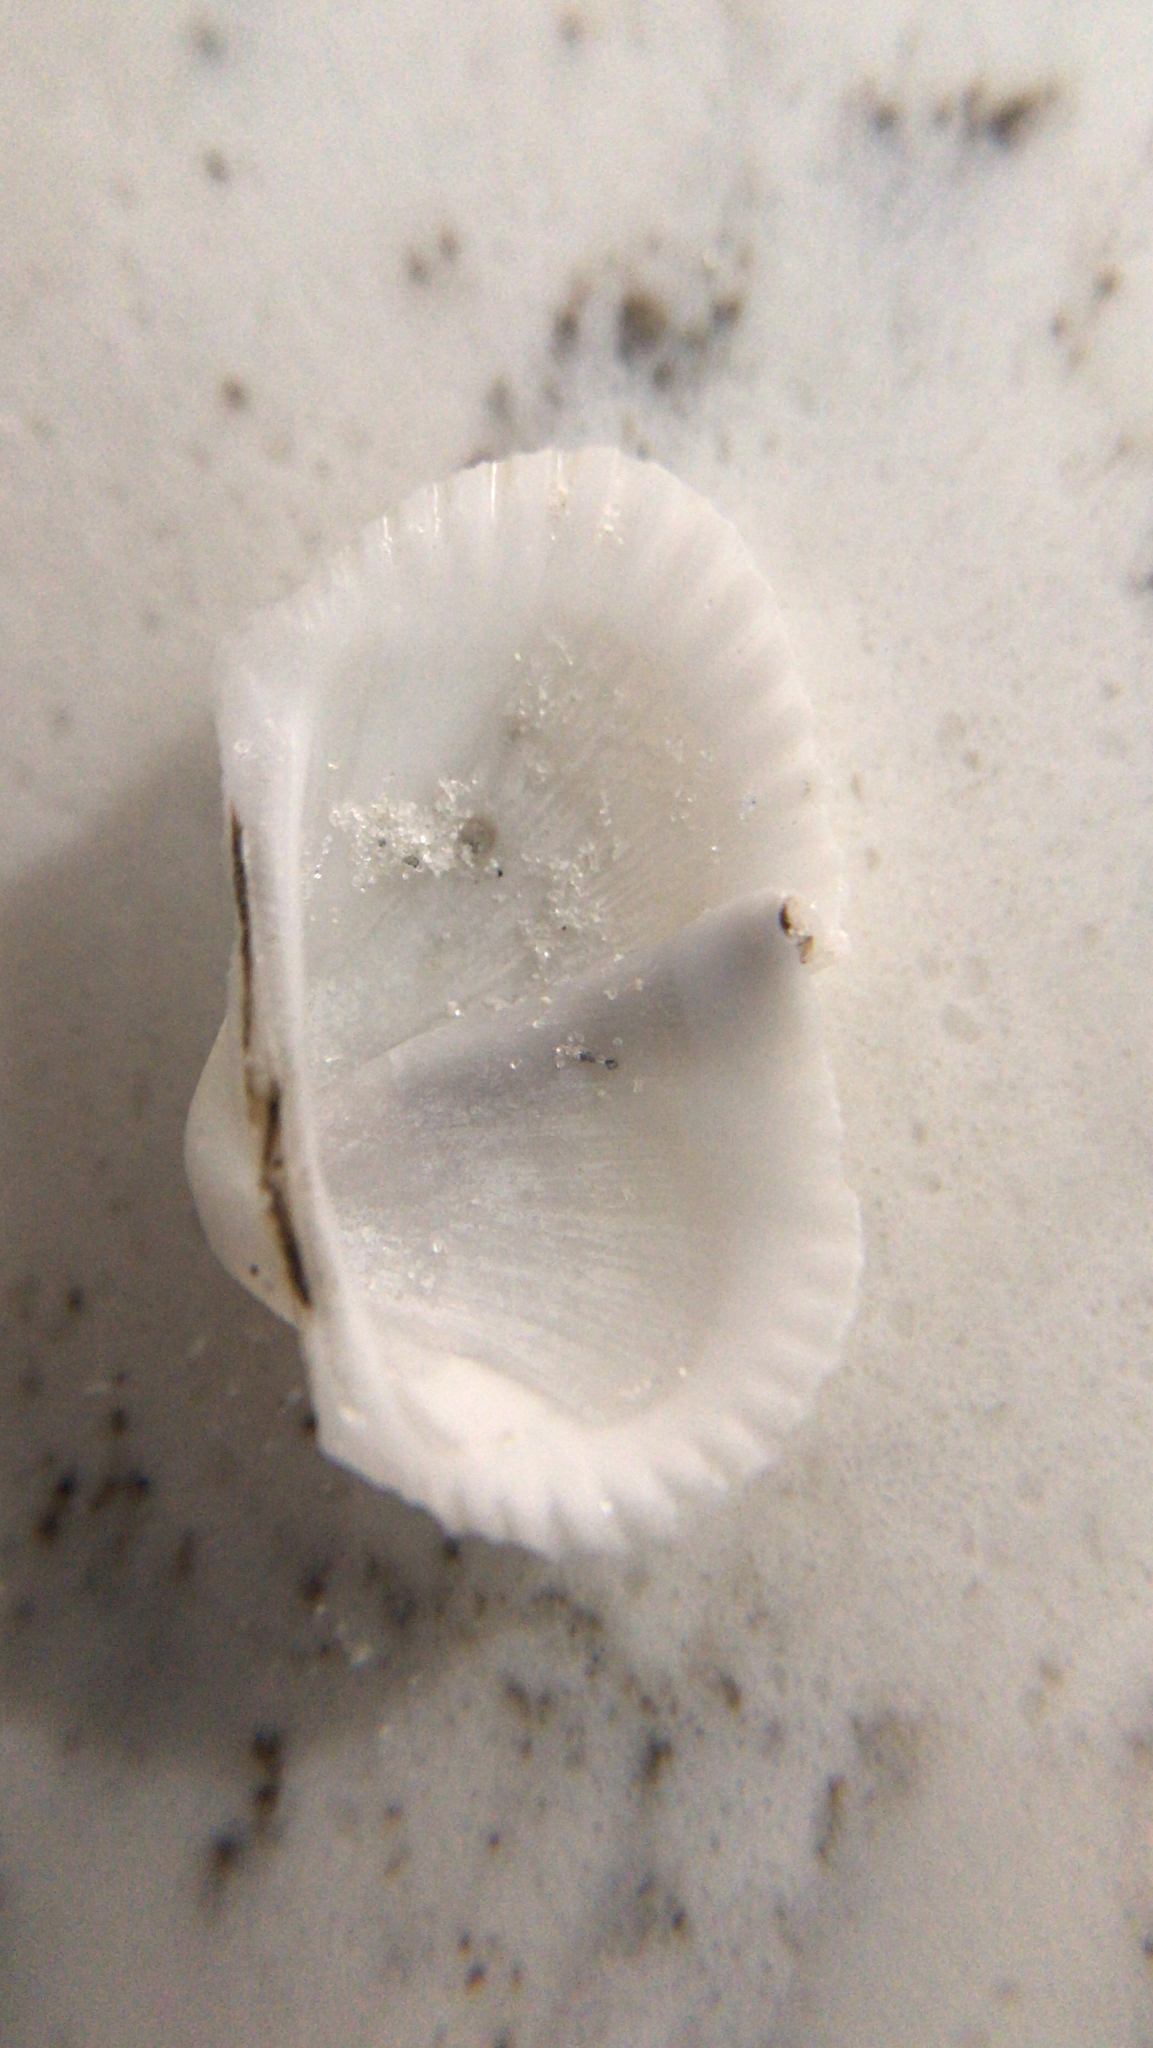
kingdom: Animalia
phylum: Mollusca
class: Bivalvia
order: Arcida
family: Arcidae
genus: Anadara
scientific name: Anadara transversa
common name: Transverse ark
